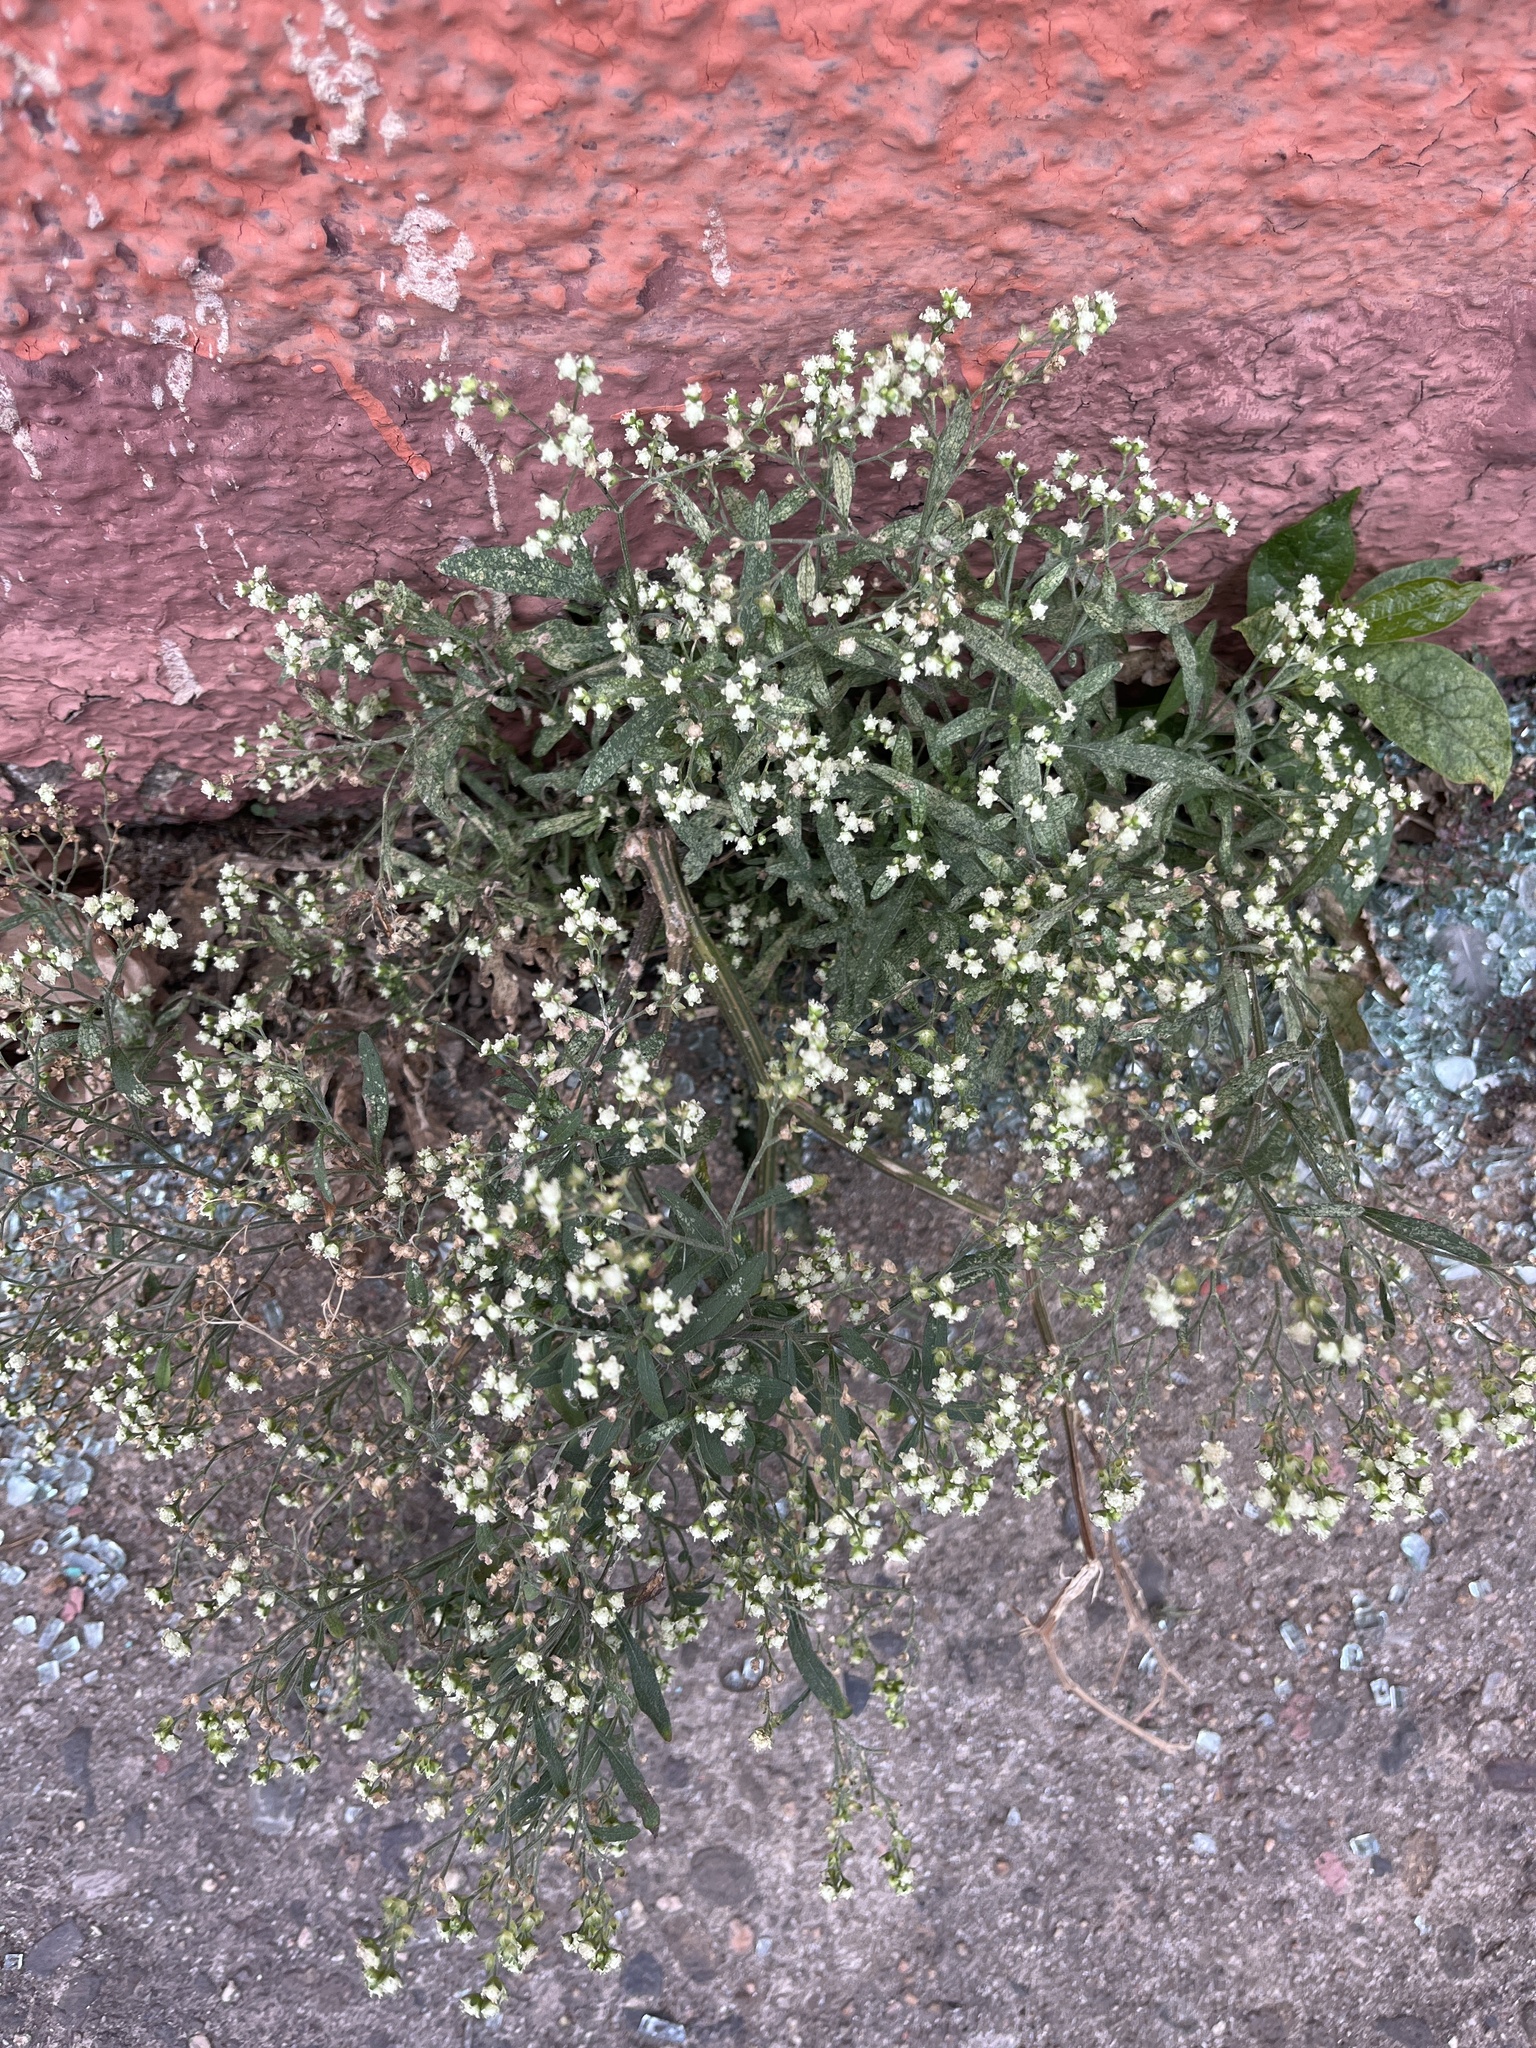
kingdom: Plantae
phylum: Tracheophyta
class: Magnoliopsida
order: Asterales
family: Asteraceae
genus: Parthenium
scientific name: Parthenium hysterophorus
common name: Santa maria feverfew
